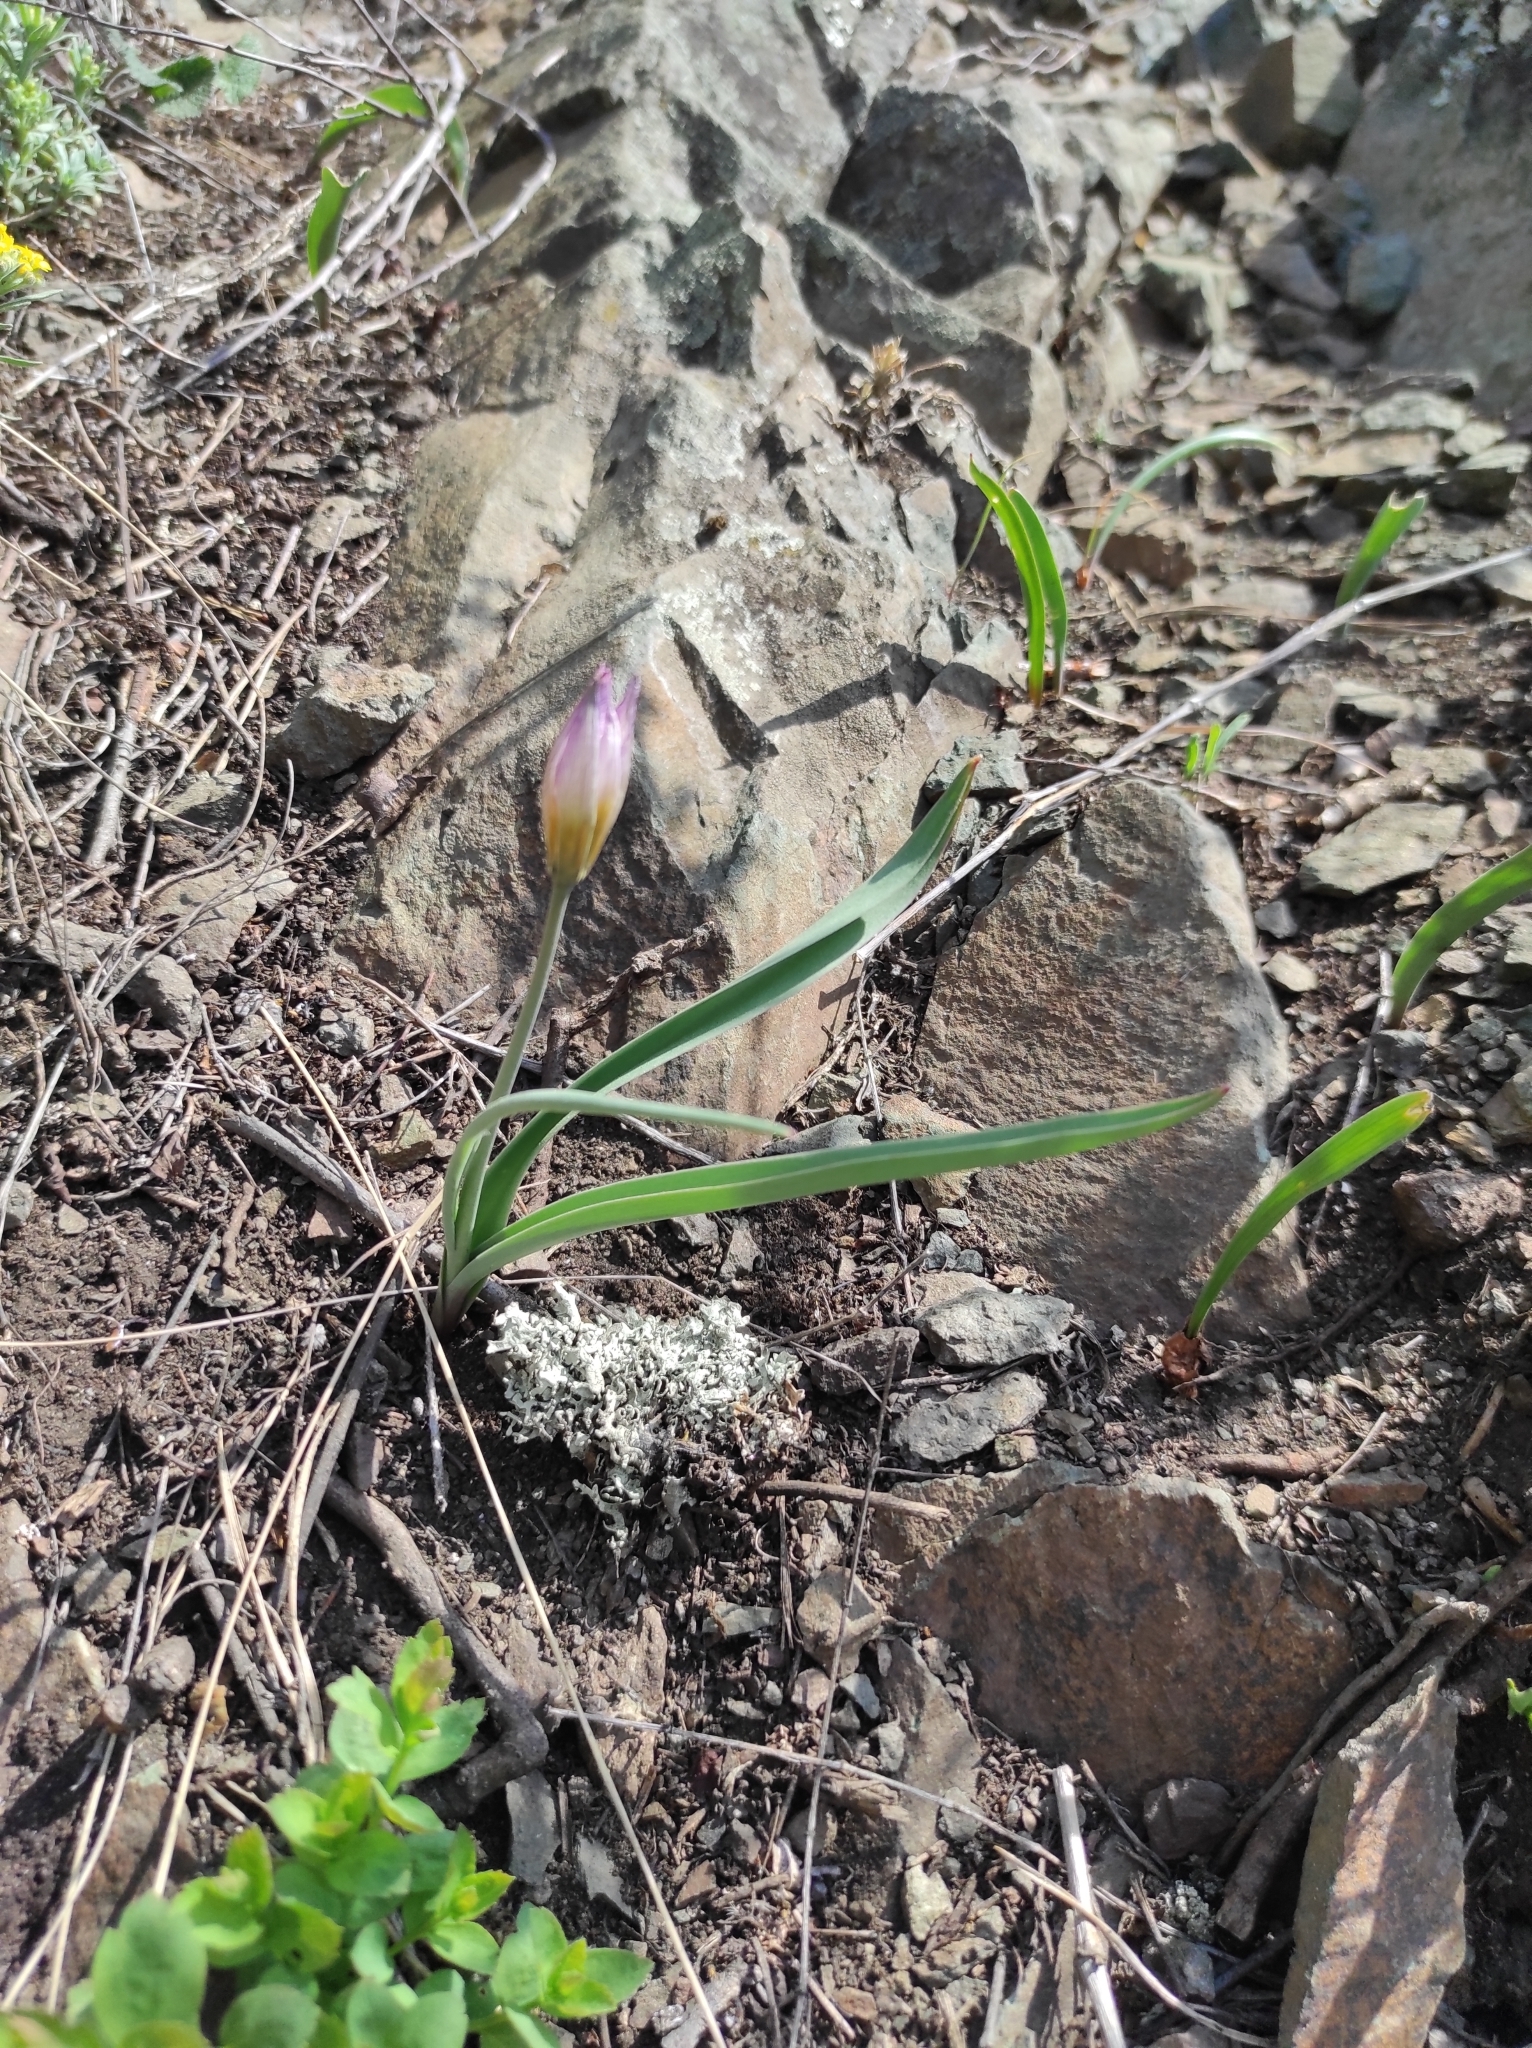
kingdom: Plantae
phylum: Tracheophyta
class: Liliopsida
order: Liliales
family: Liliaceae
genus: Tulipa
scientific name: Tulipa patens
